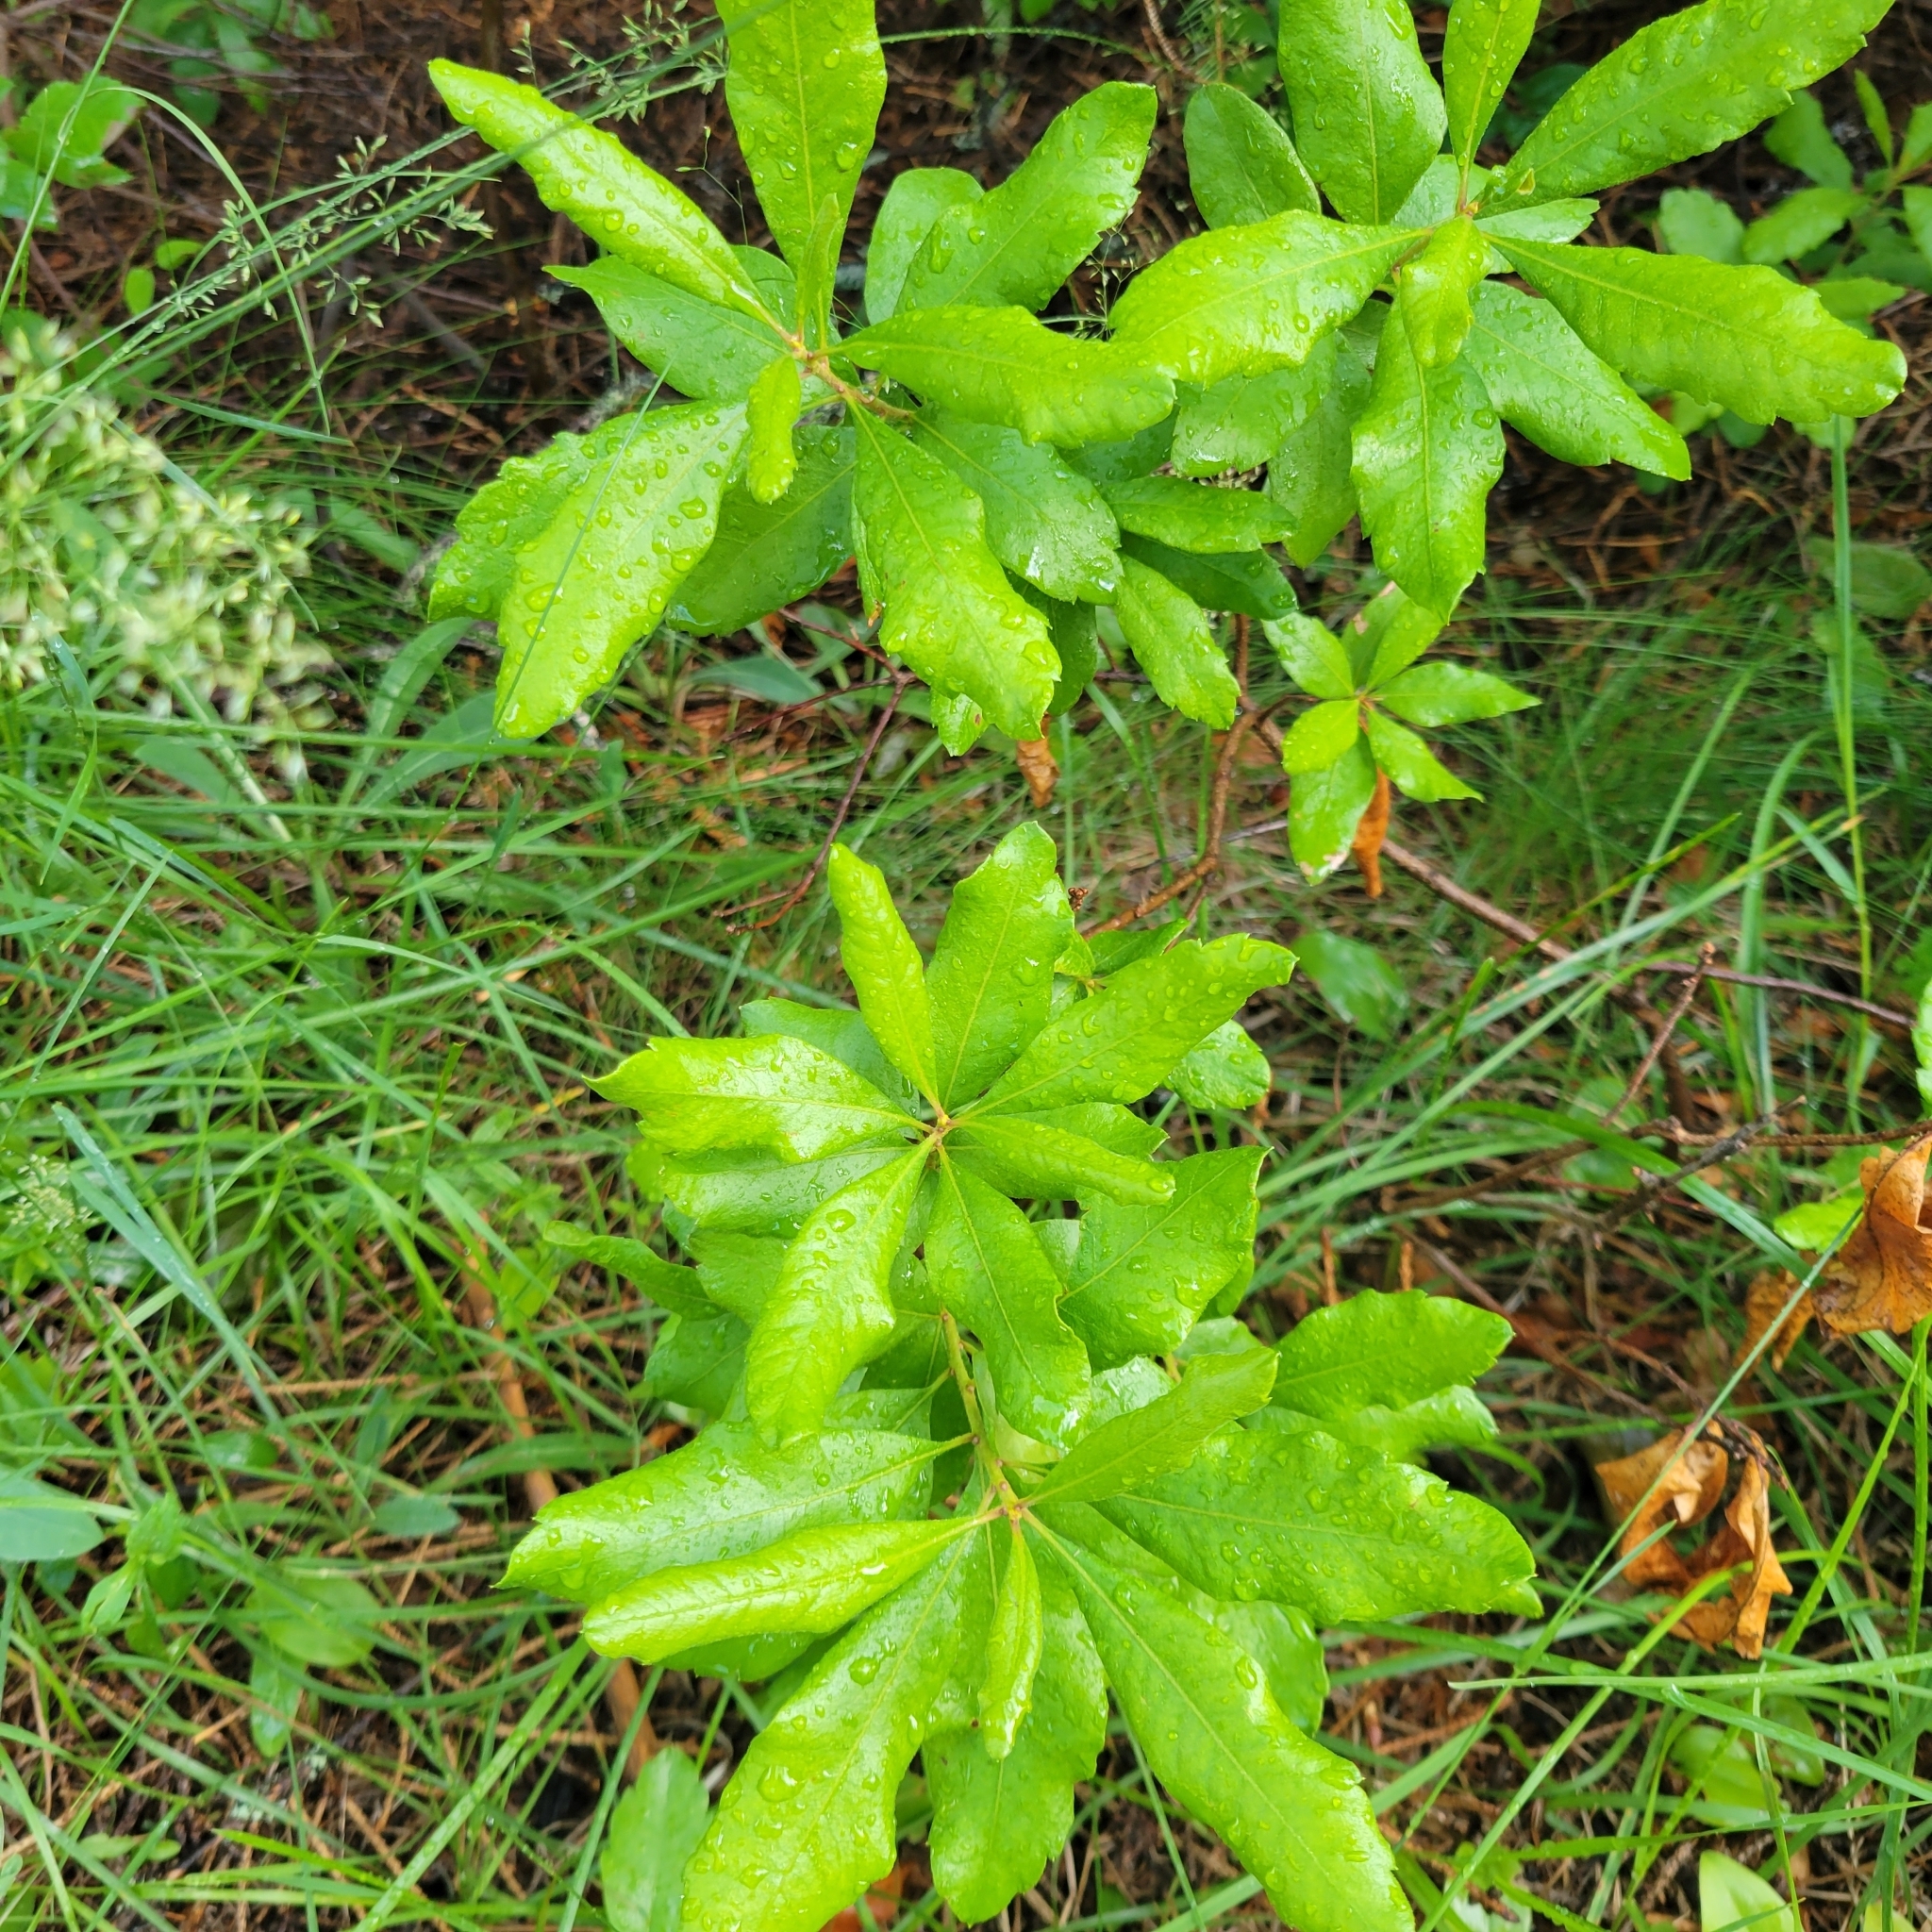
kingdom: Plantae
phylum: Tracheophyta
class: Magnoliopsida
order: Fagales
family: Myricaceae
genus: Morella
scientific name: Morella pensylvanica
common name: Northern bayberry
